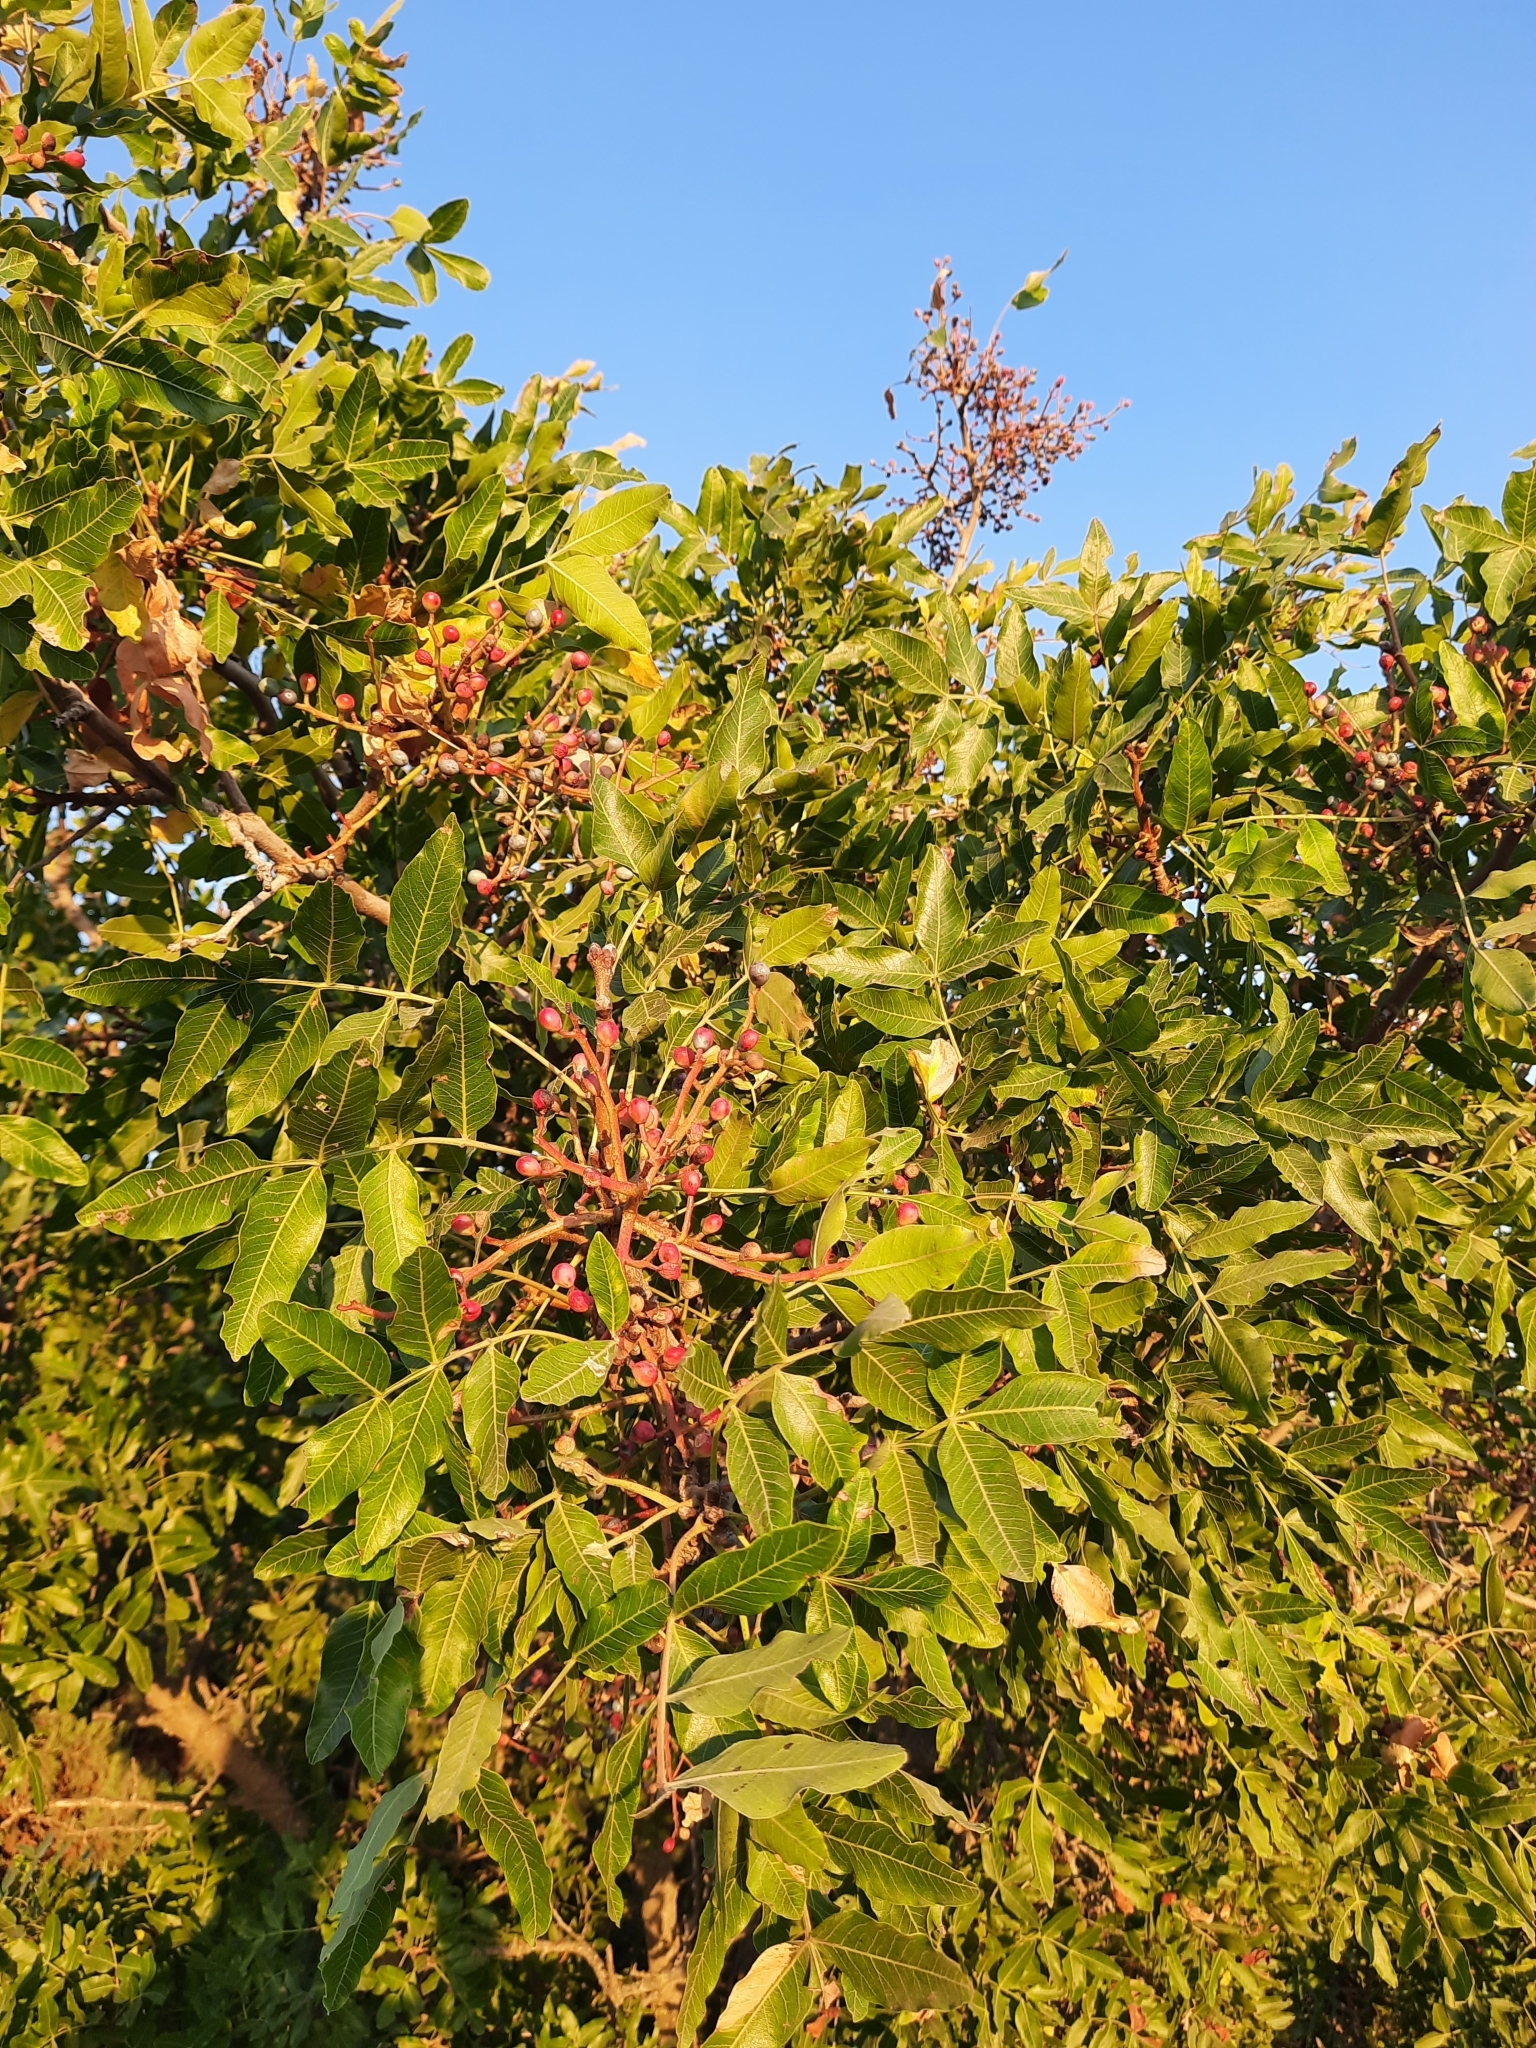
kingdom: Plantae
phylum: Tracheophyta
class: Magnoliopsida
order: Sapindales
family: Anacardiaceae
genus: Pistacia
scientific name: Pistacia atlantica
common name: Mt. atlas mastic tree
